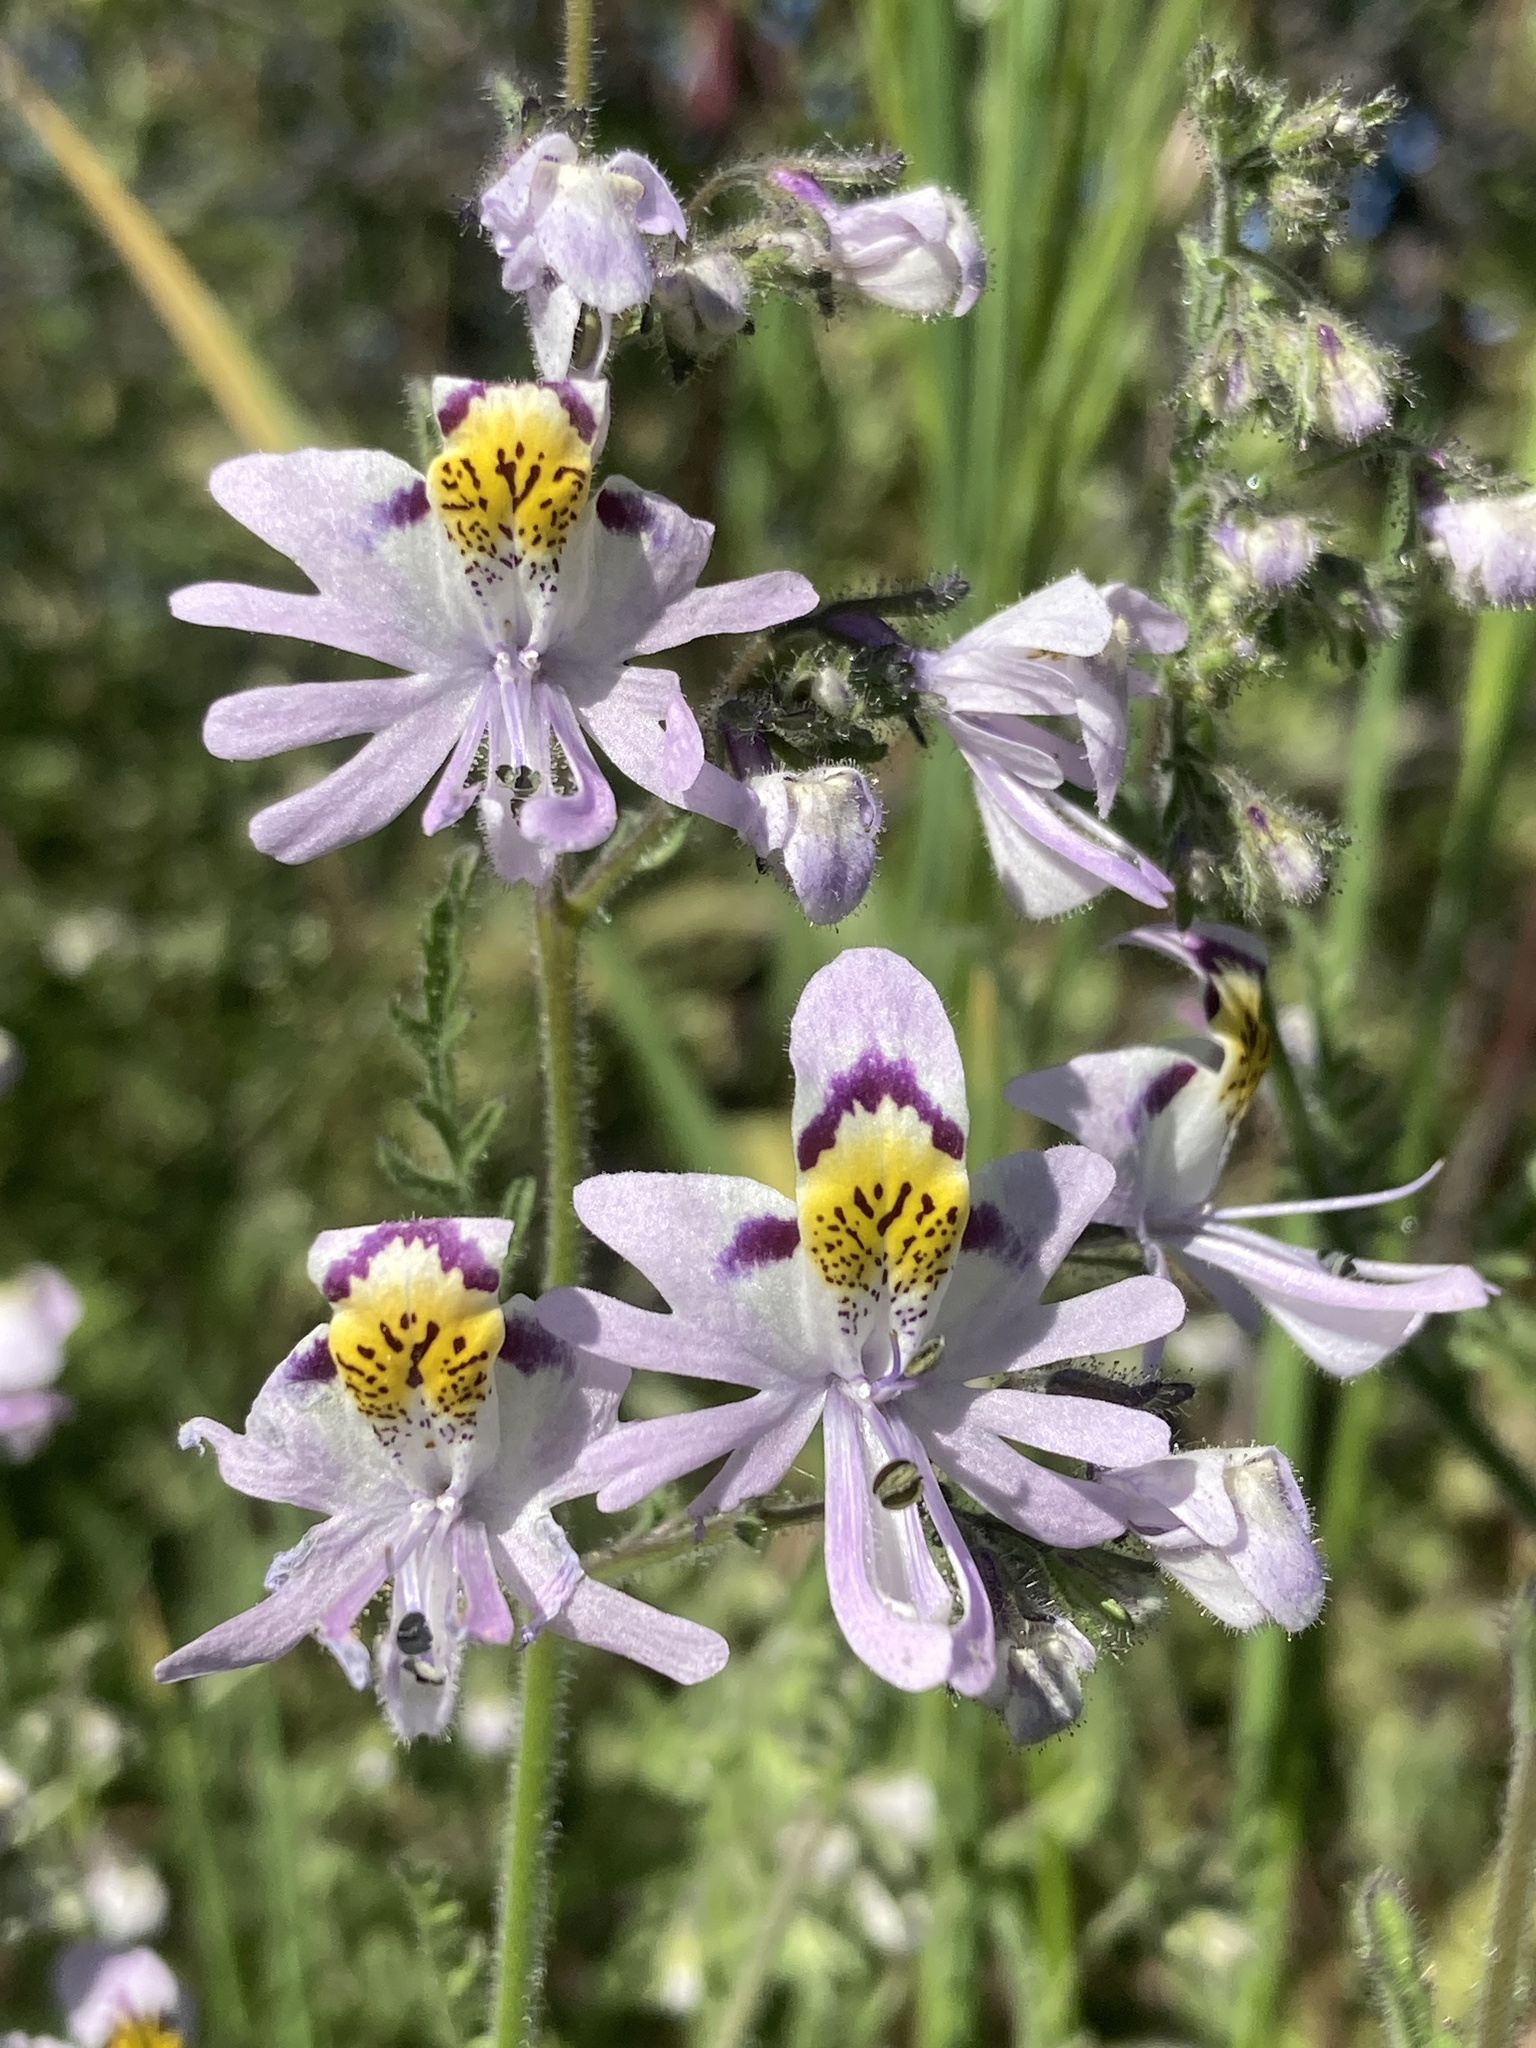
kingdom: Plantae
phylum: Tracheophyta
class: Magnoliopsida
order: Solanales
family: Solanaceae
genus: Schizanthus
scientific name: Schizanthus porrigens
